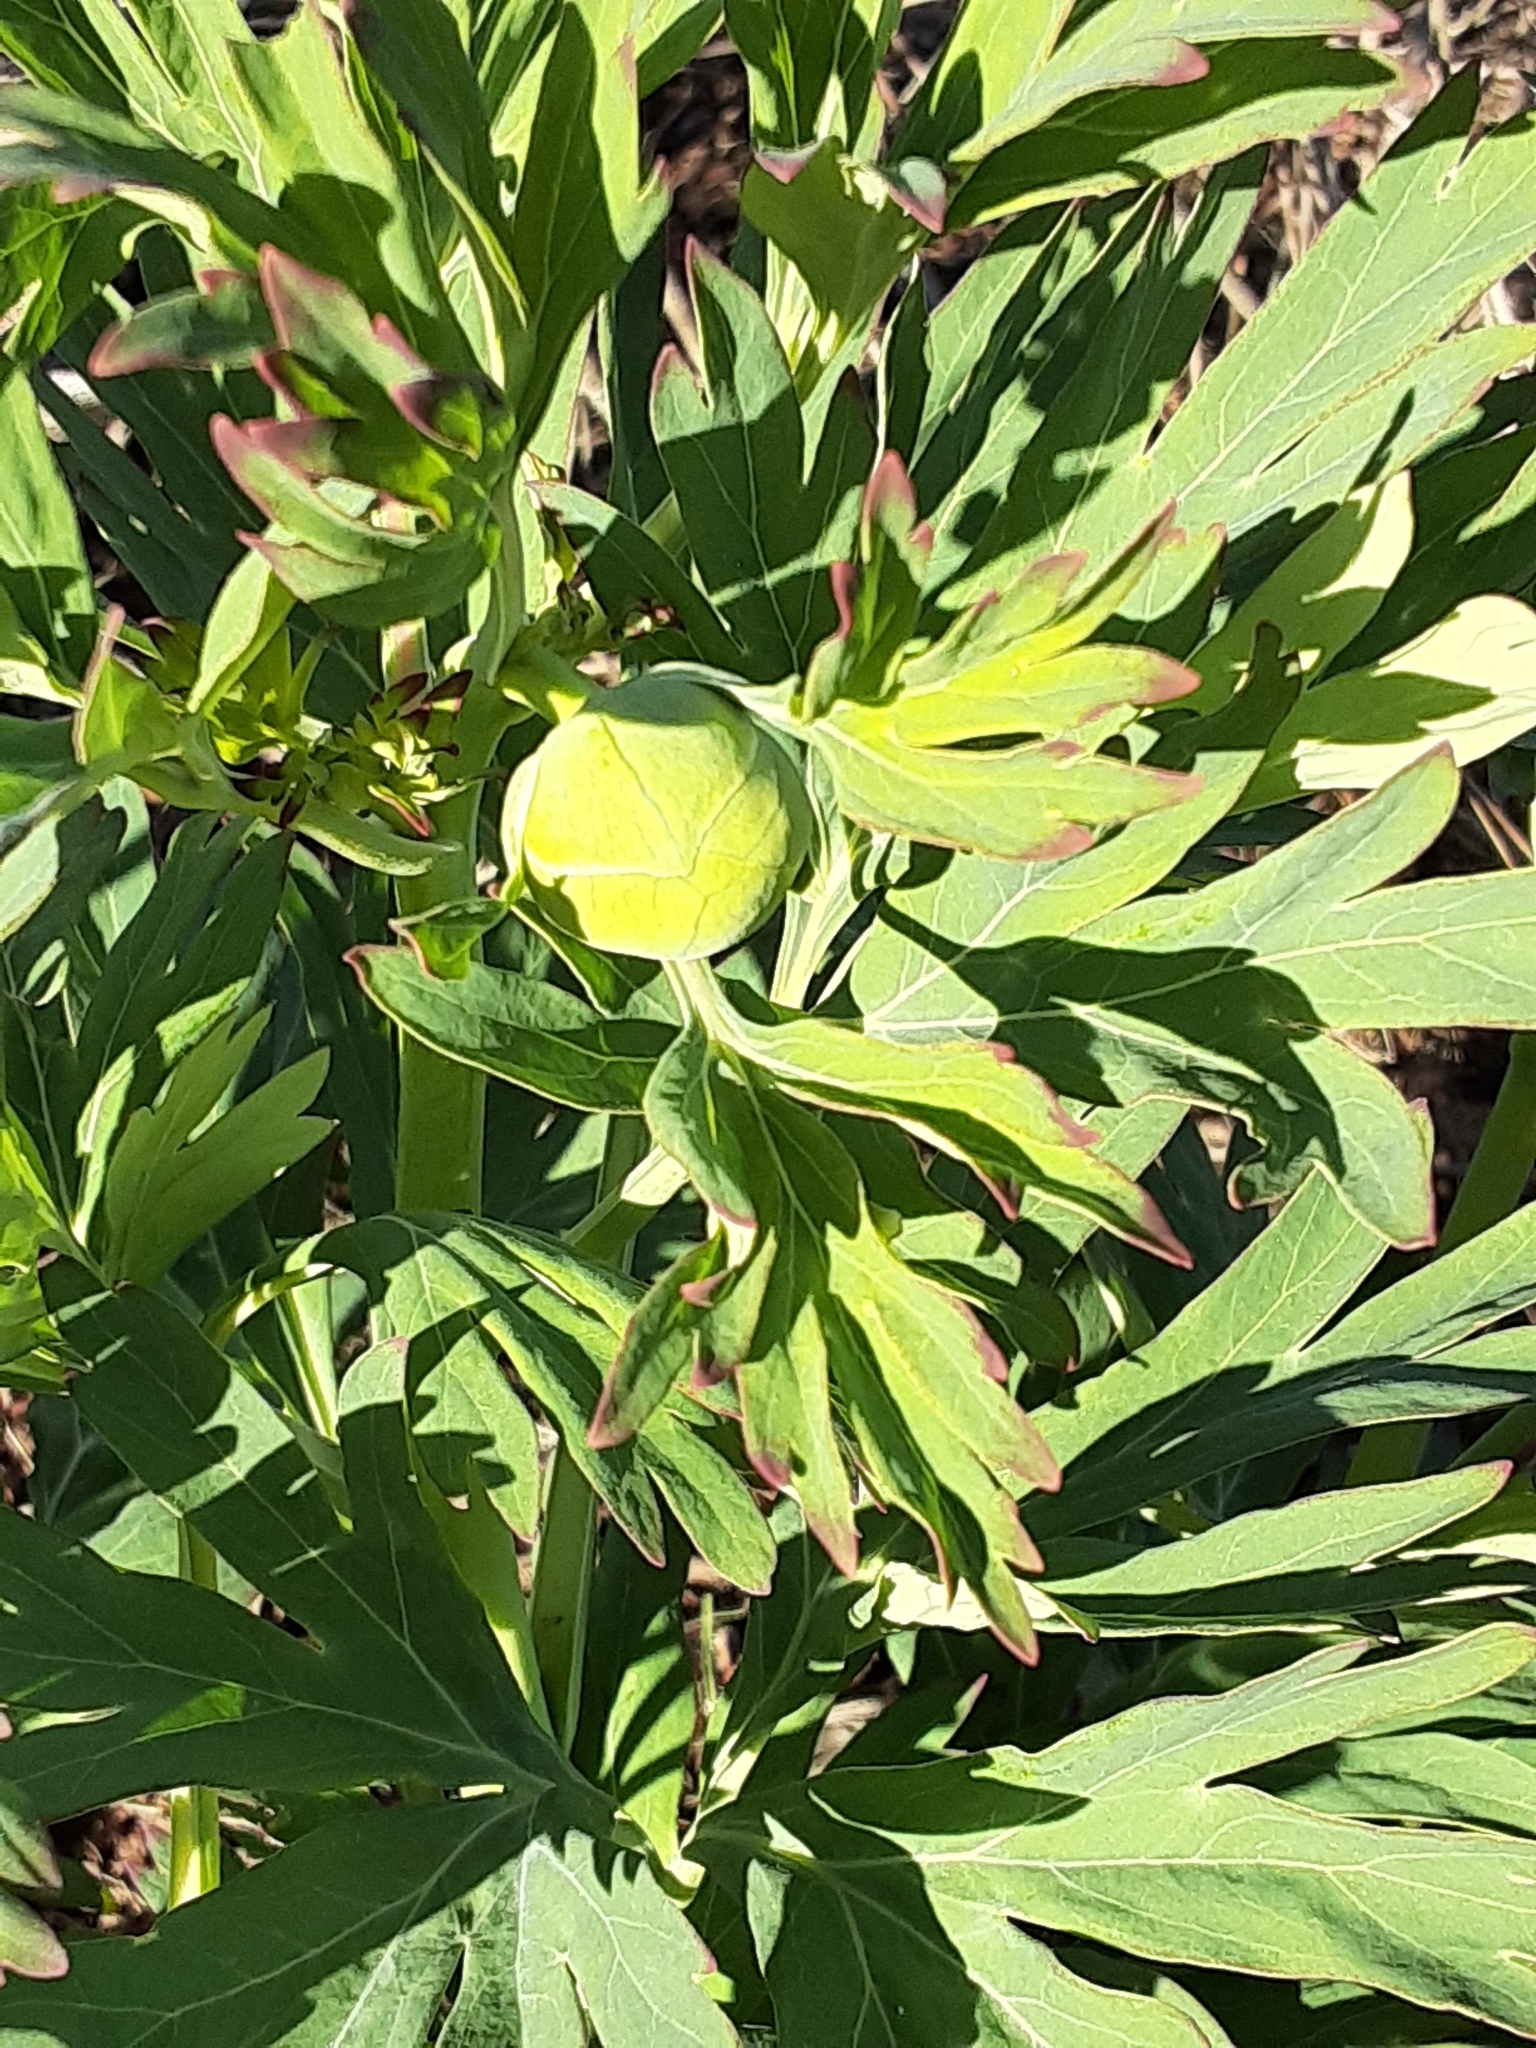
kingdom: Plantae
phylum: Tracheophyta
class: Magnoliopsida
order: Saxifragales
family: Paeoniaceae
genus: Paeonia
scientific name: Paeonia californica
